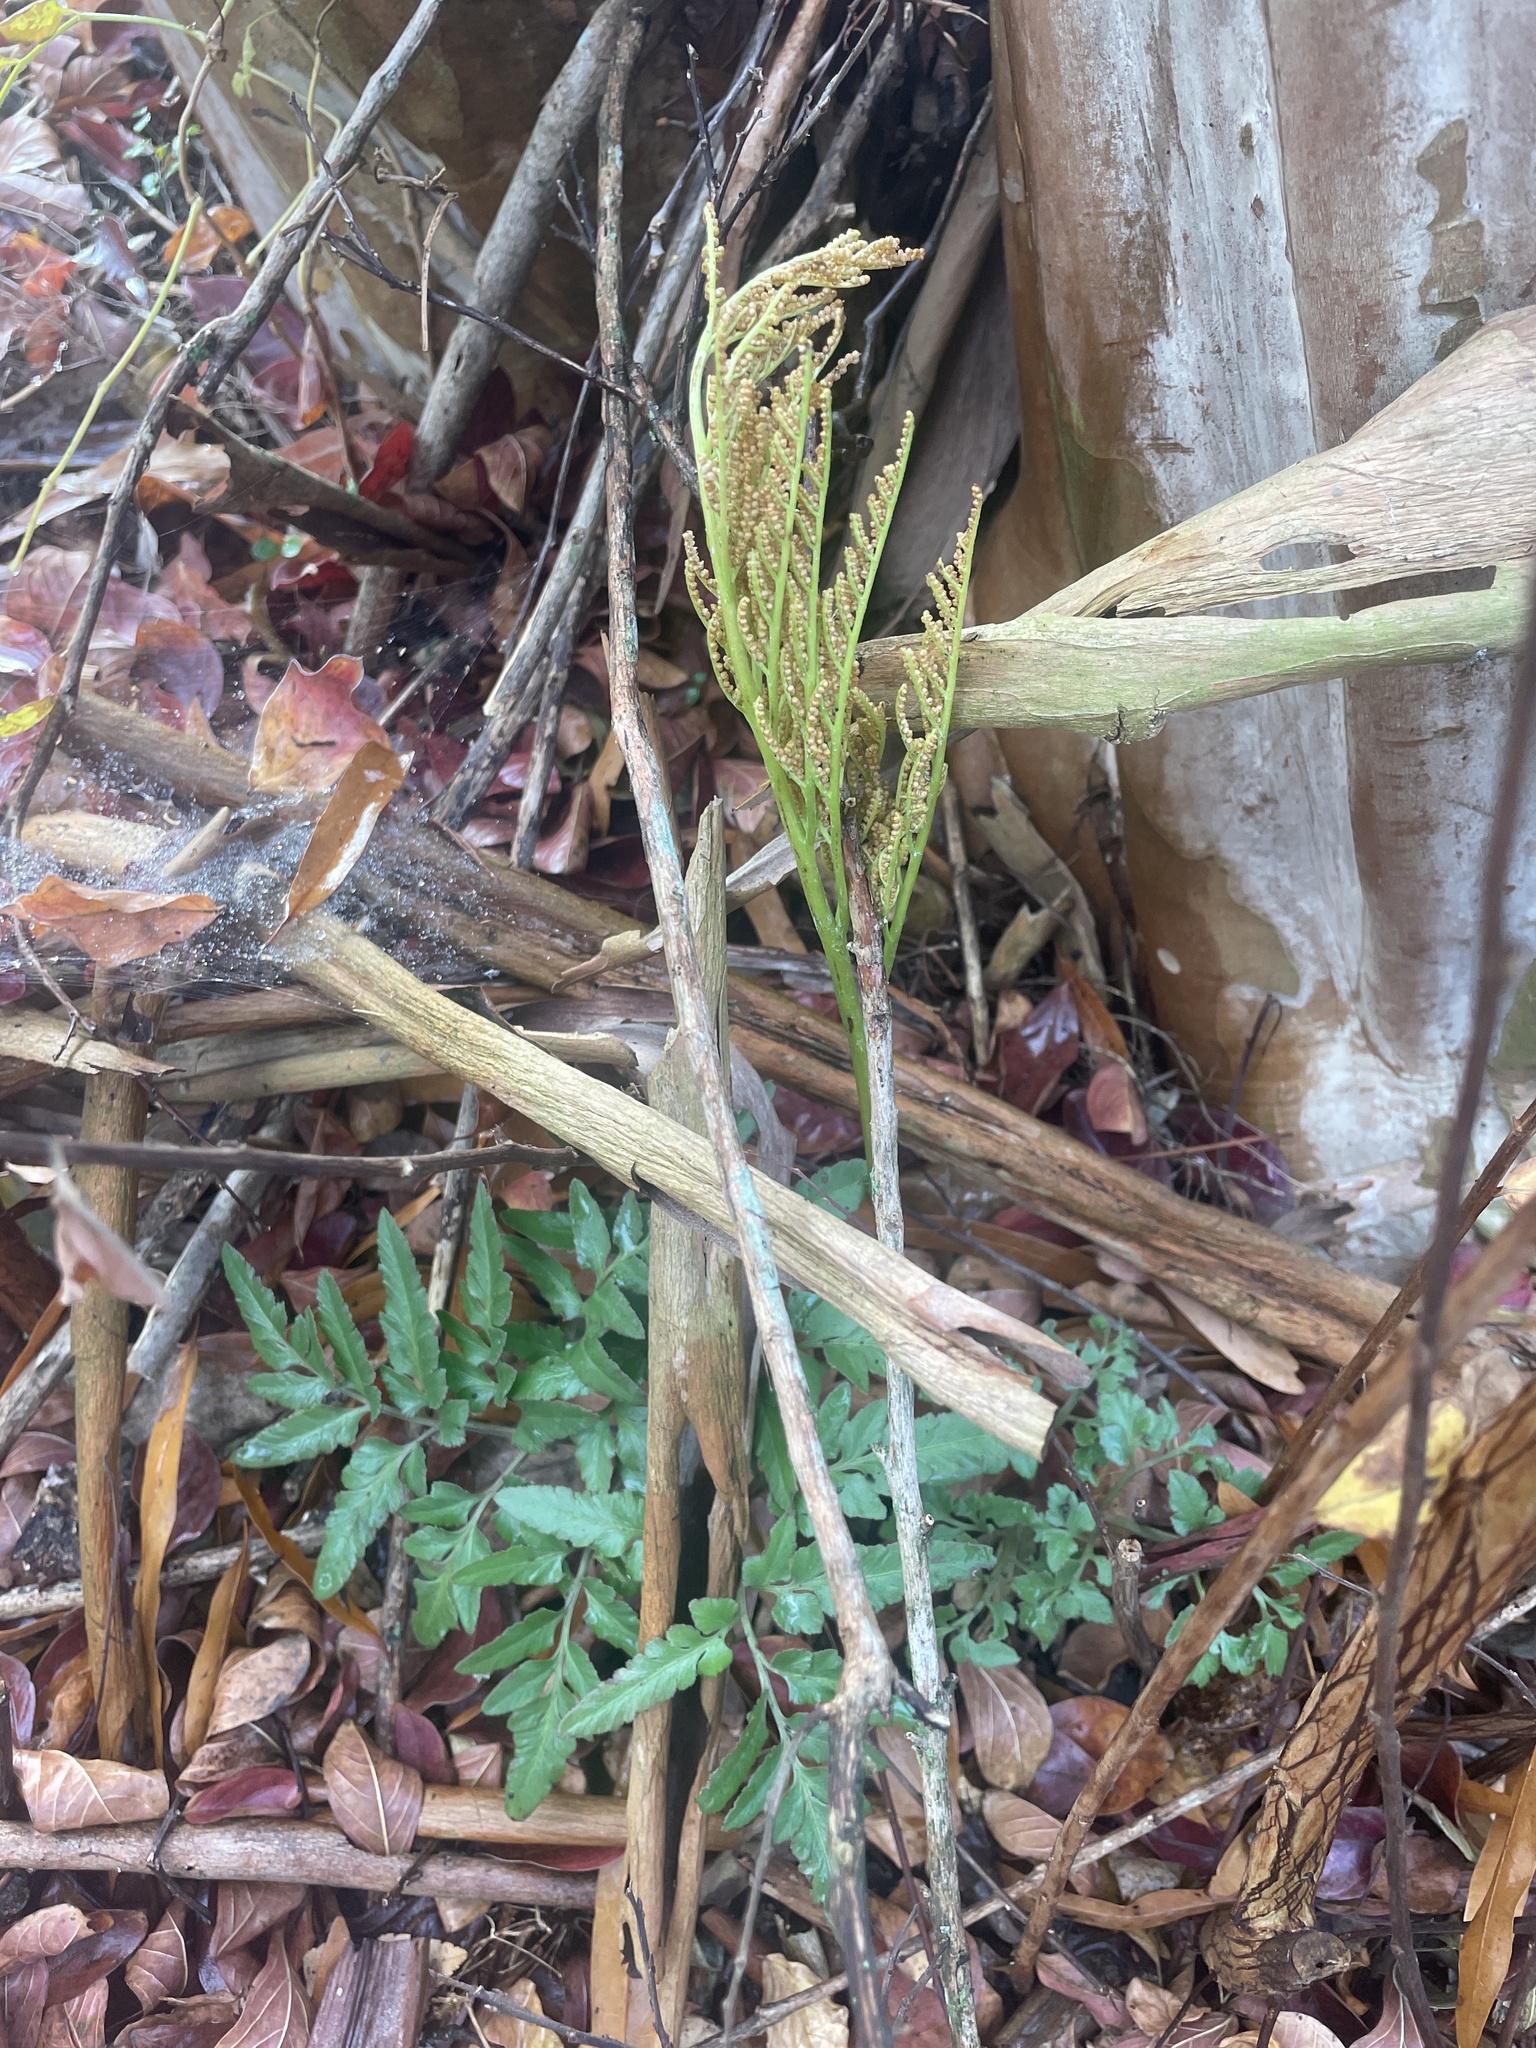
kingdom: Plantae
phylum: Tracheophyta
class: Polypodiopsida
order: Ophioglossales
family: Ophioglossaceae
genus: Sceptridium
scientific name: Sceptridium dissectum
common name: Cut-leaved grapefern
